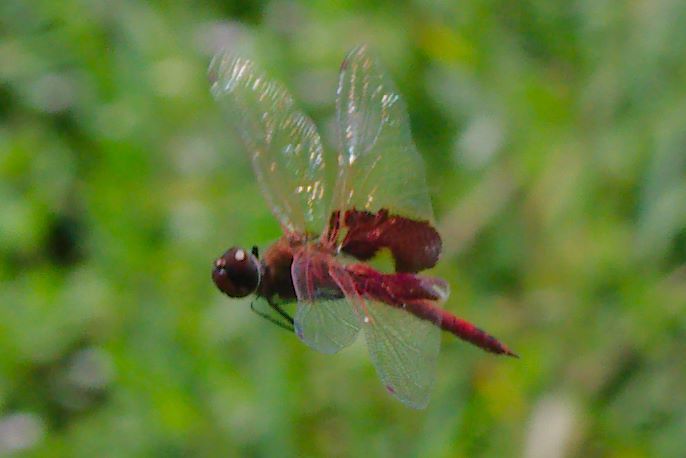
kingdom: Animalia
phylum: Arthropoda
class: Insecta
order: Odonata
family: Libellulidae
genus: Tramea
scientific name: Tramea onusta
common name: Red saddlebags
